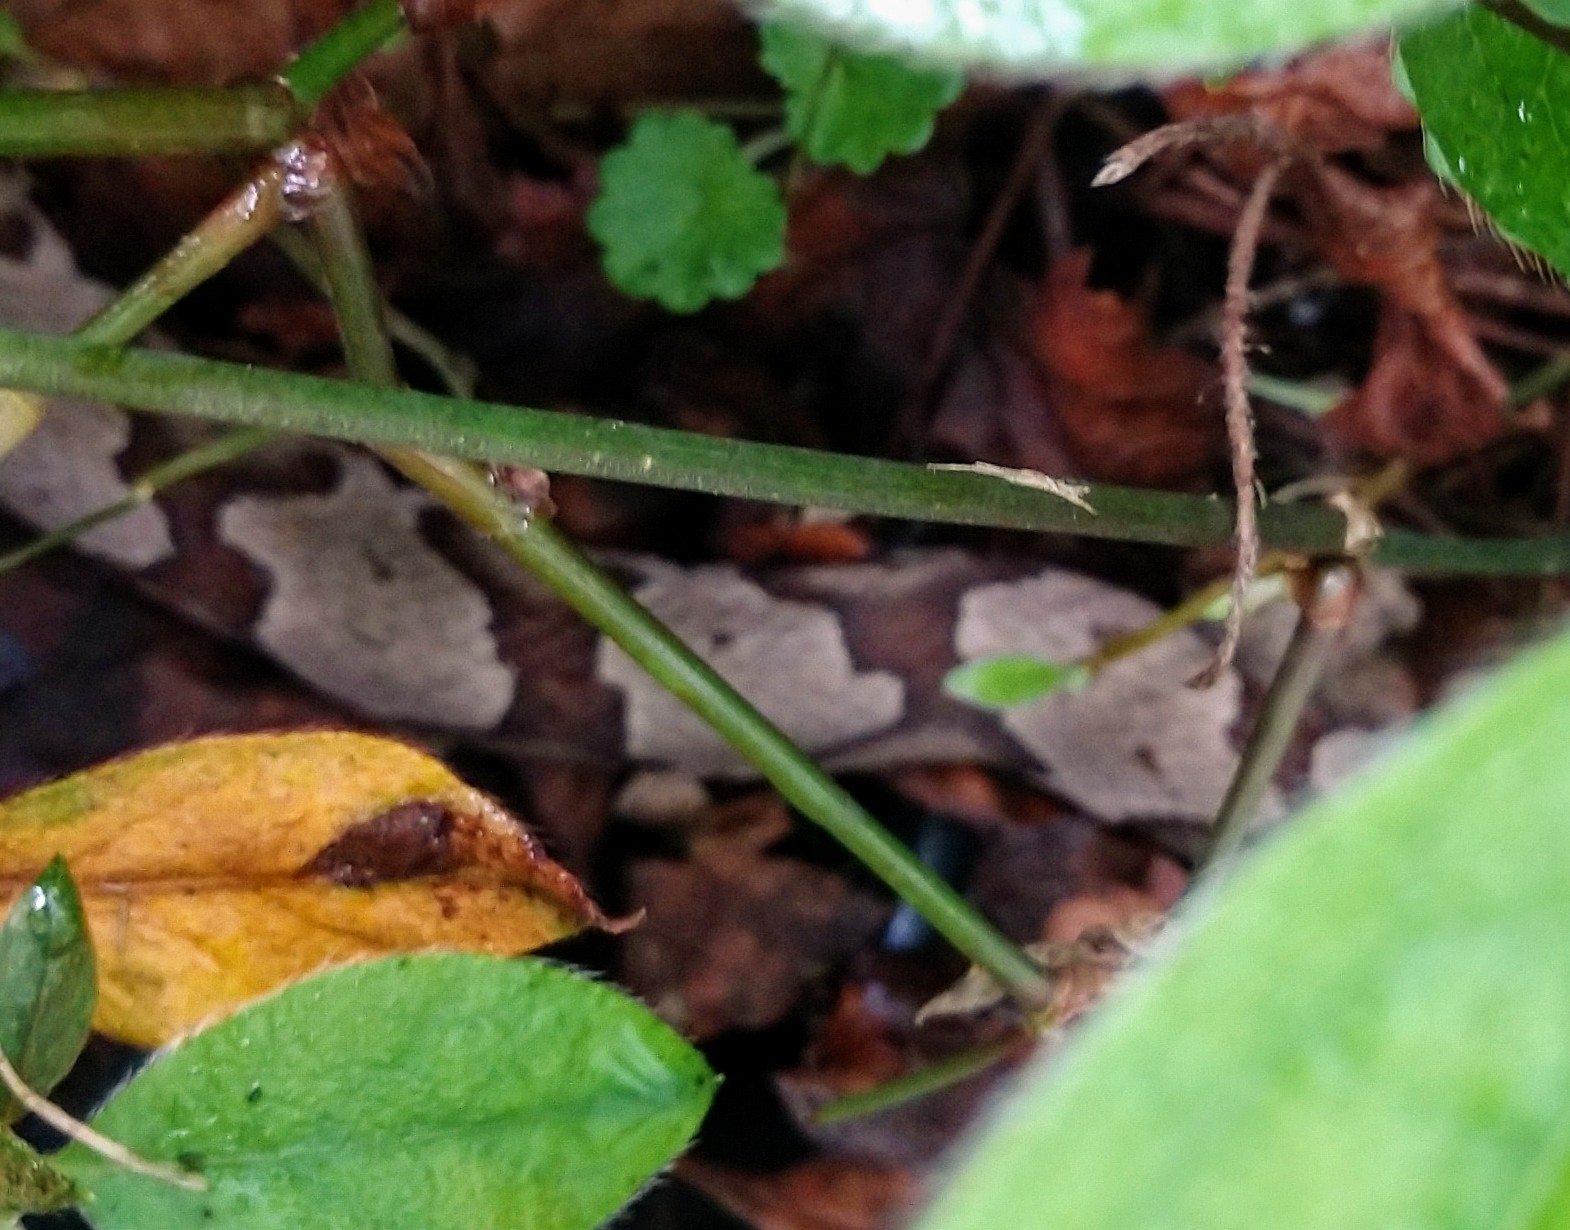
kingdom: Animalia
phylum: Chordata
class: Squamata
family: Viperidae
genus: Agkistrodon
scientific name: Agkistrodon contortrix
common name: Northern copperhead
